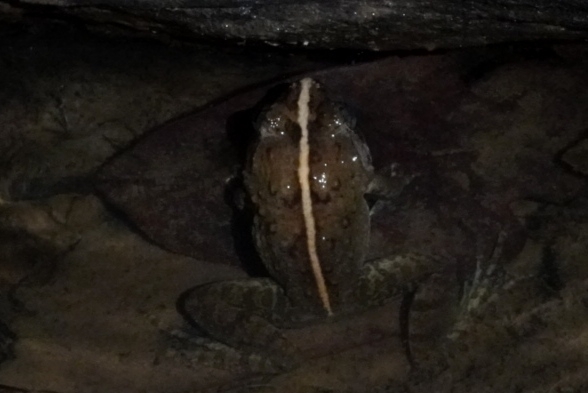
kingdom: Animalia
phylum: Chordata
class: Amphibia
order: Anura
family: Dicroglossidae
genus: Limnonectes
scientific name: Limnonectes dabanus
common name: Annam wart frog
